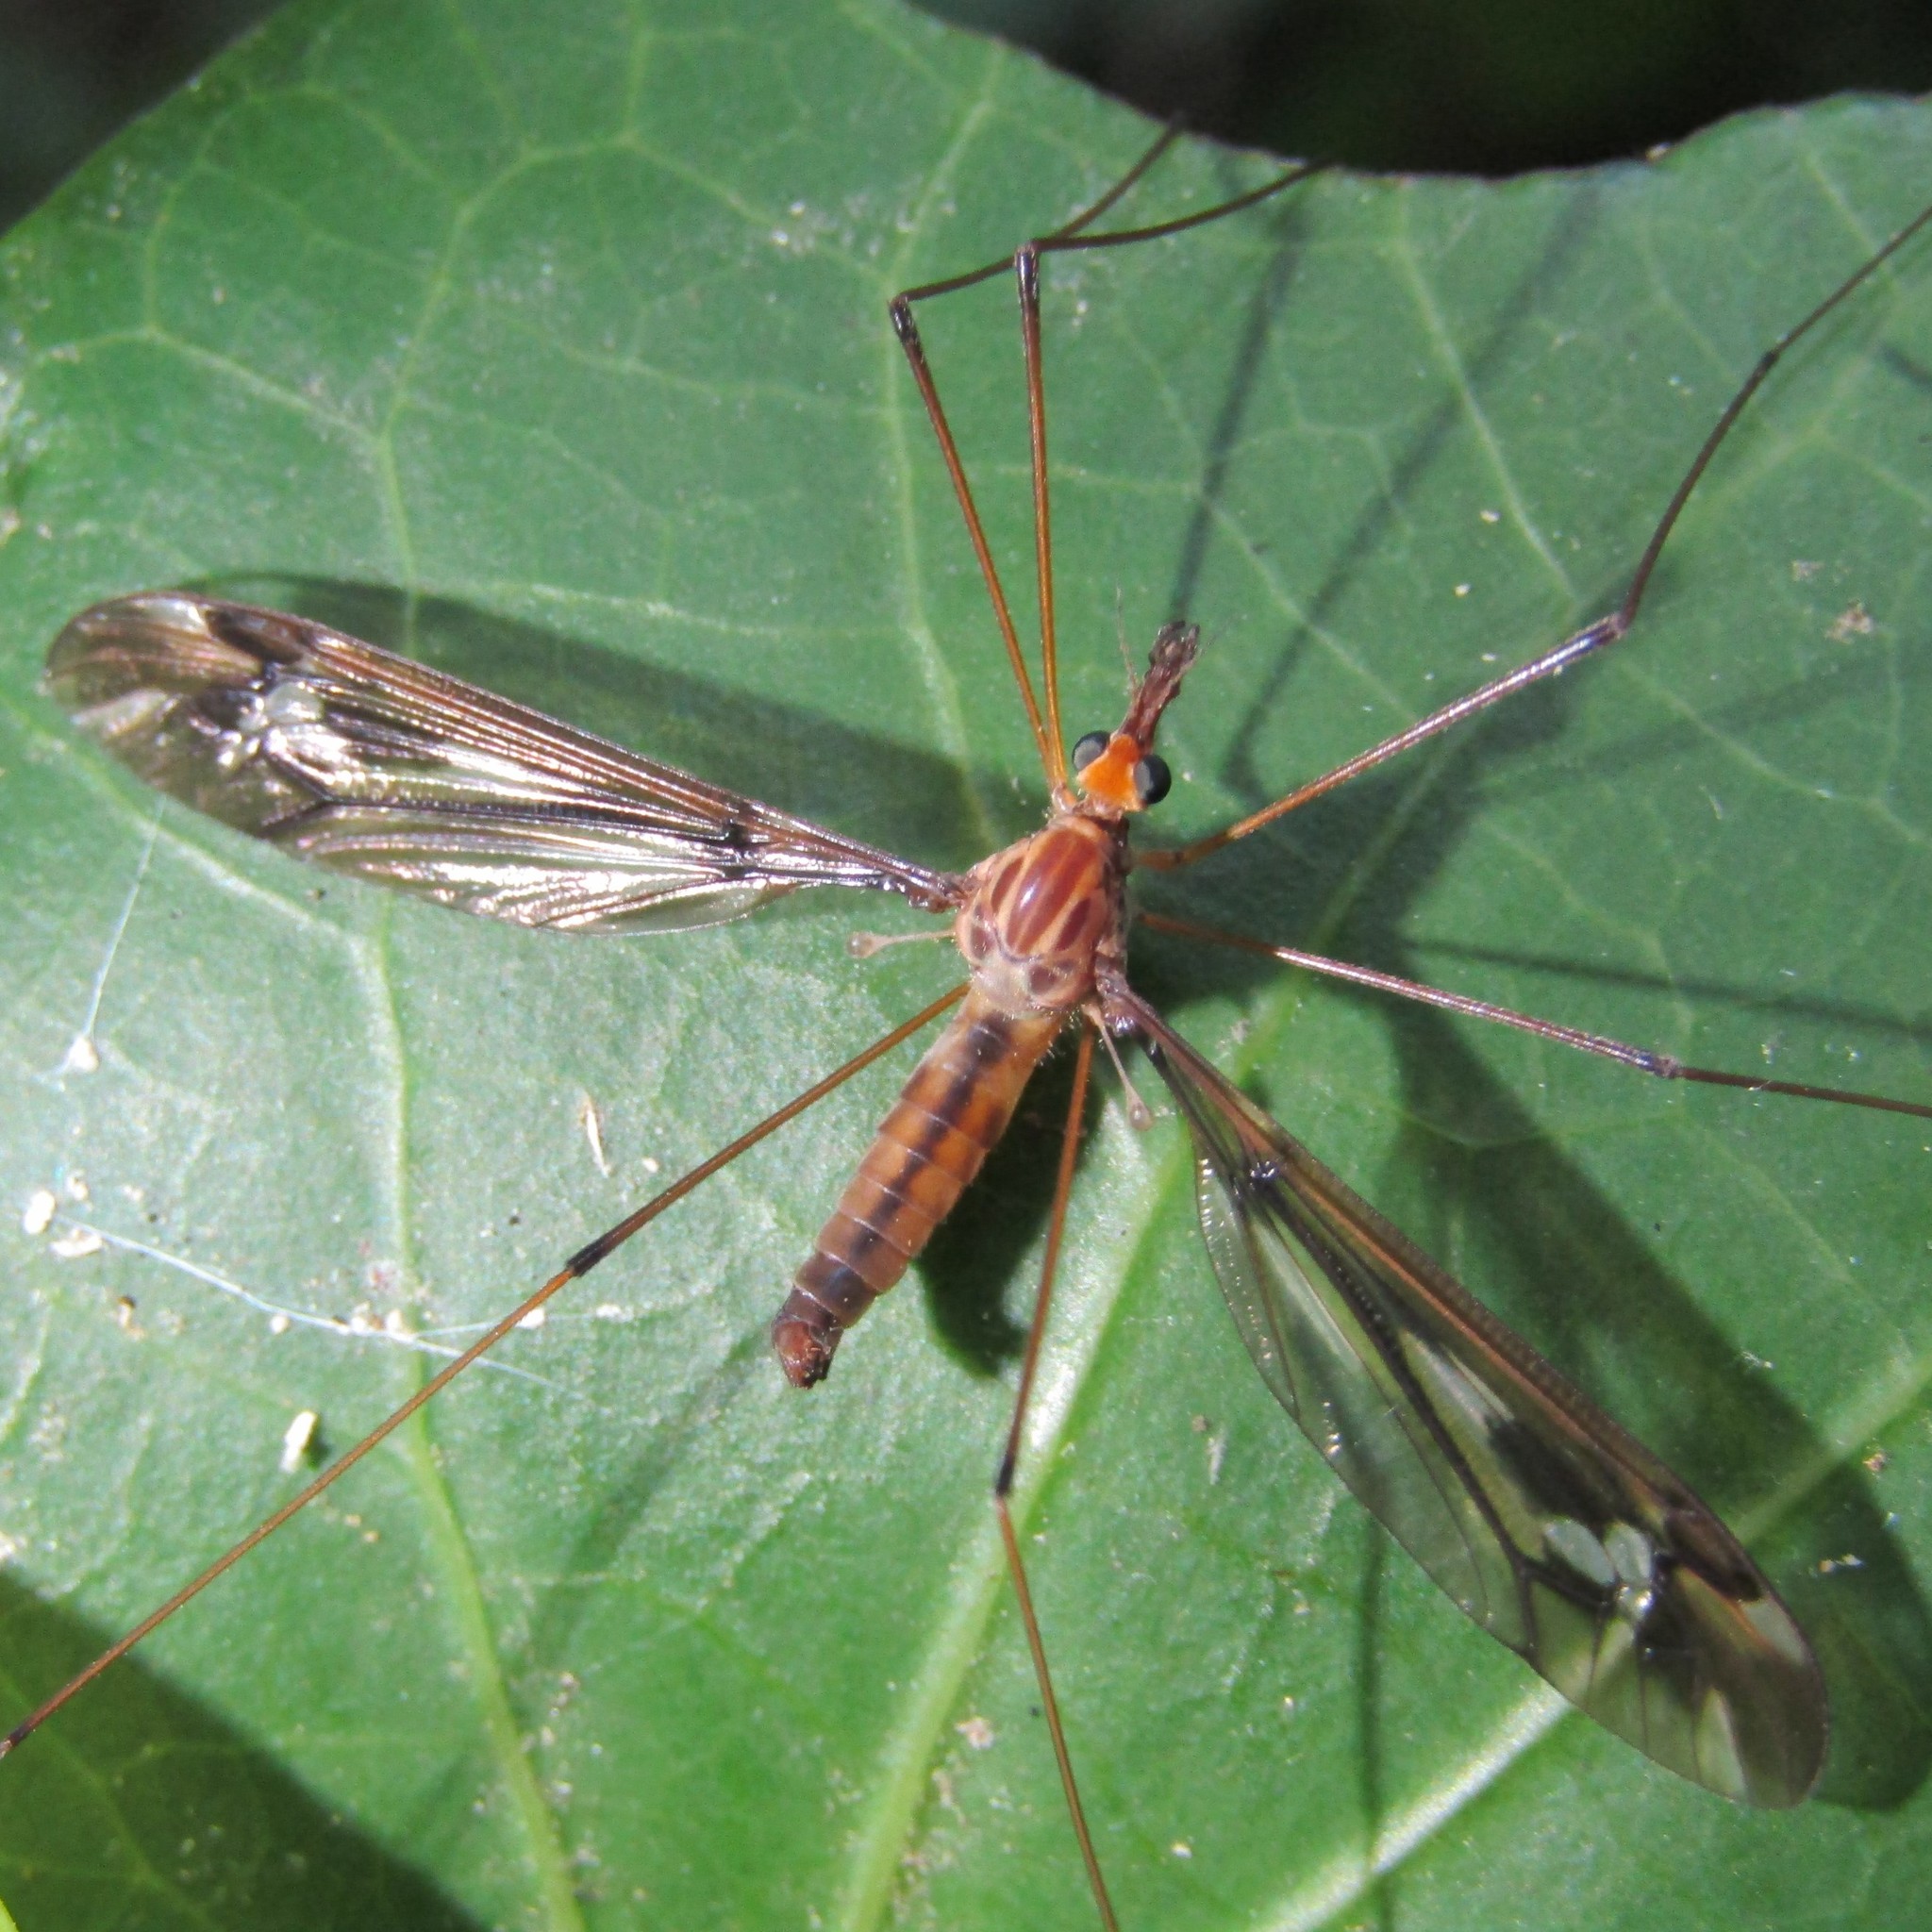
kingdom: Animalia
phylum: Arthropoda
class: Insecta
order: Diptera
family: Tipulidae
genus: Leptotarsus
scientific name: Leptotarsus huttoni
